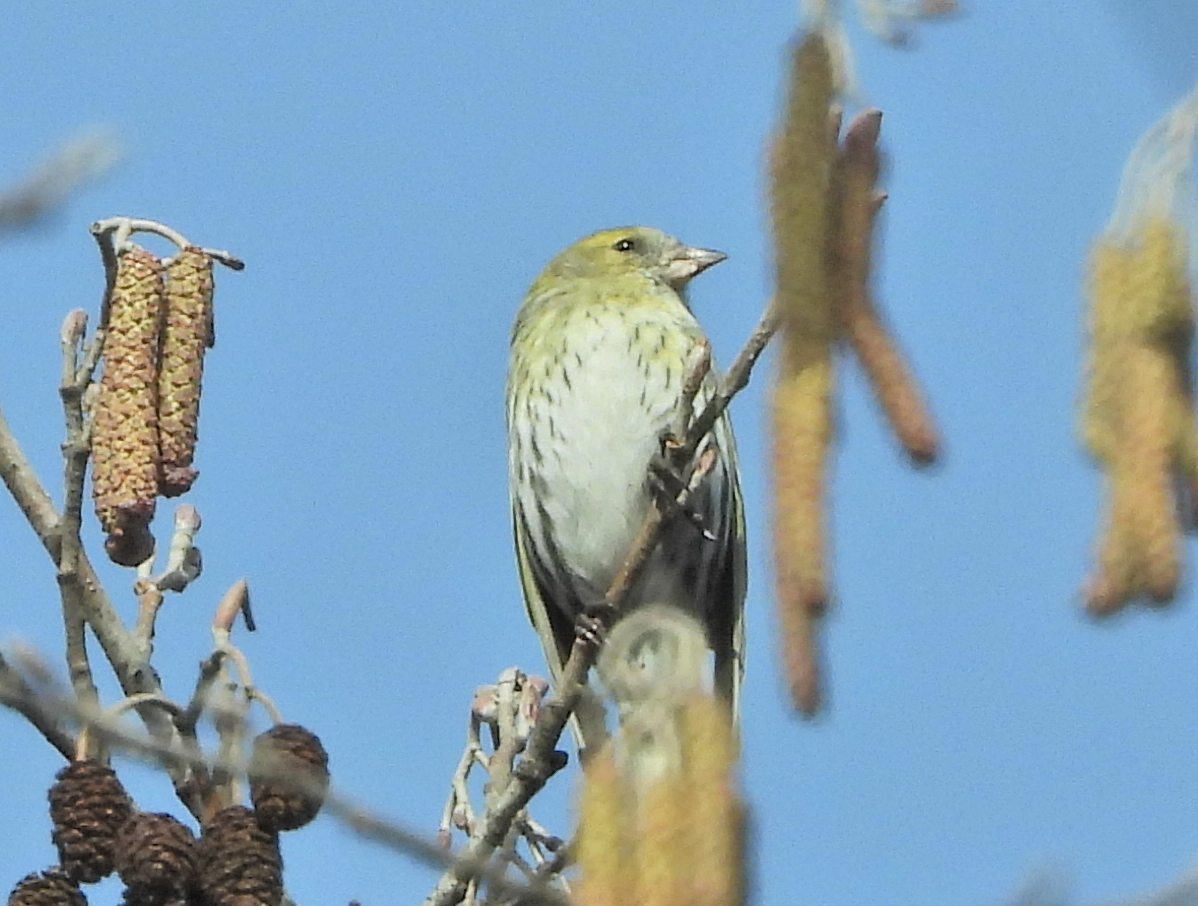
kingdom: Animalia
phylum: Chordata
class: Aves
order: Passeriformes
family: Fringillidae
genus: Spinus
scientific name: Spinus spinus
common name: Eurasian siskin
